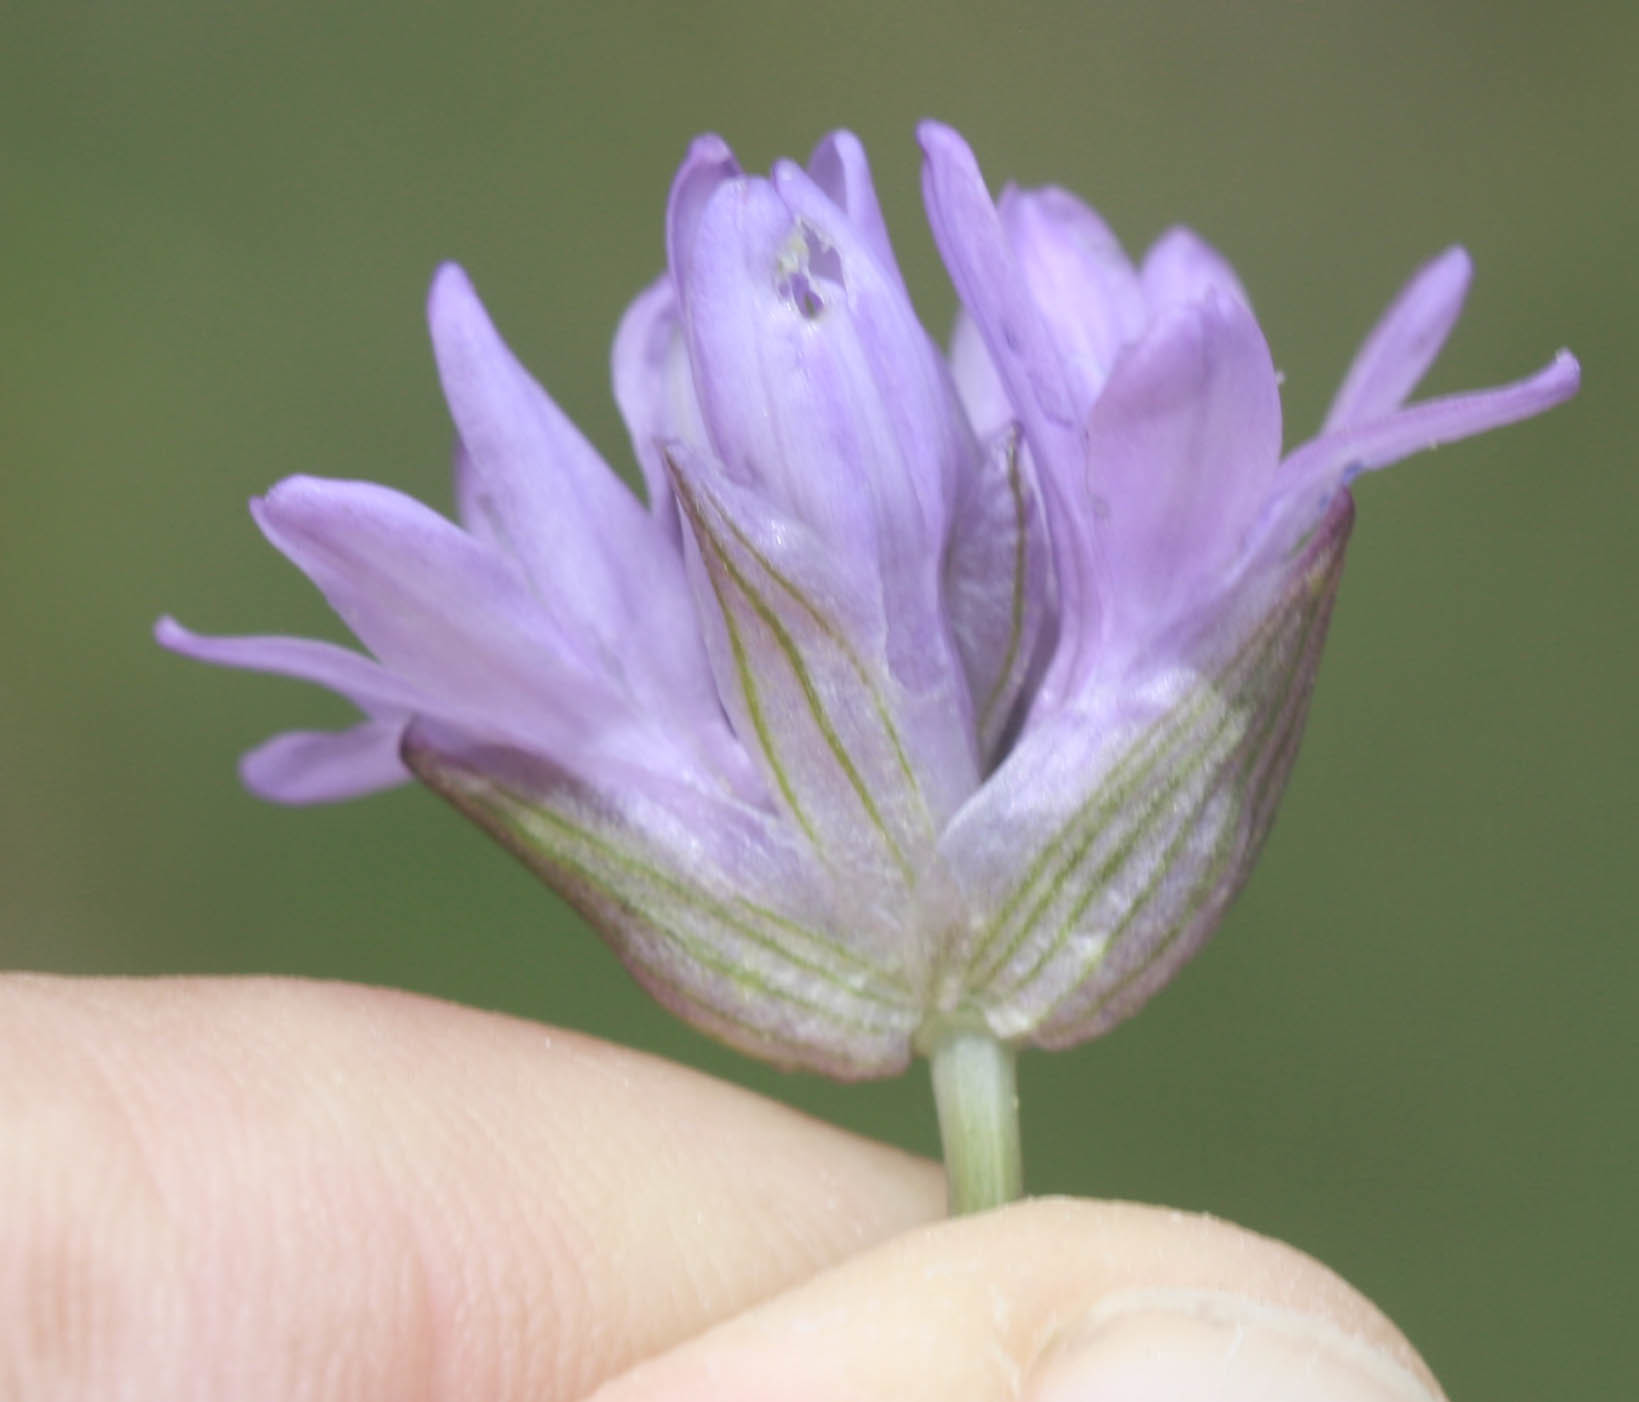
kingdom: Plantae
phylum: Tracheophyta
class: Liliopsida
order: Asparagales
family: Asparagaceae
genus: Dichelostemma
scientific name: Dichelostemma congestum
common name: Fork-tooth ookow
